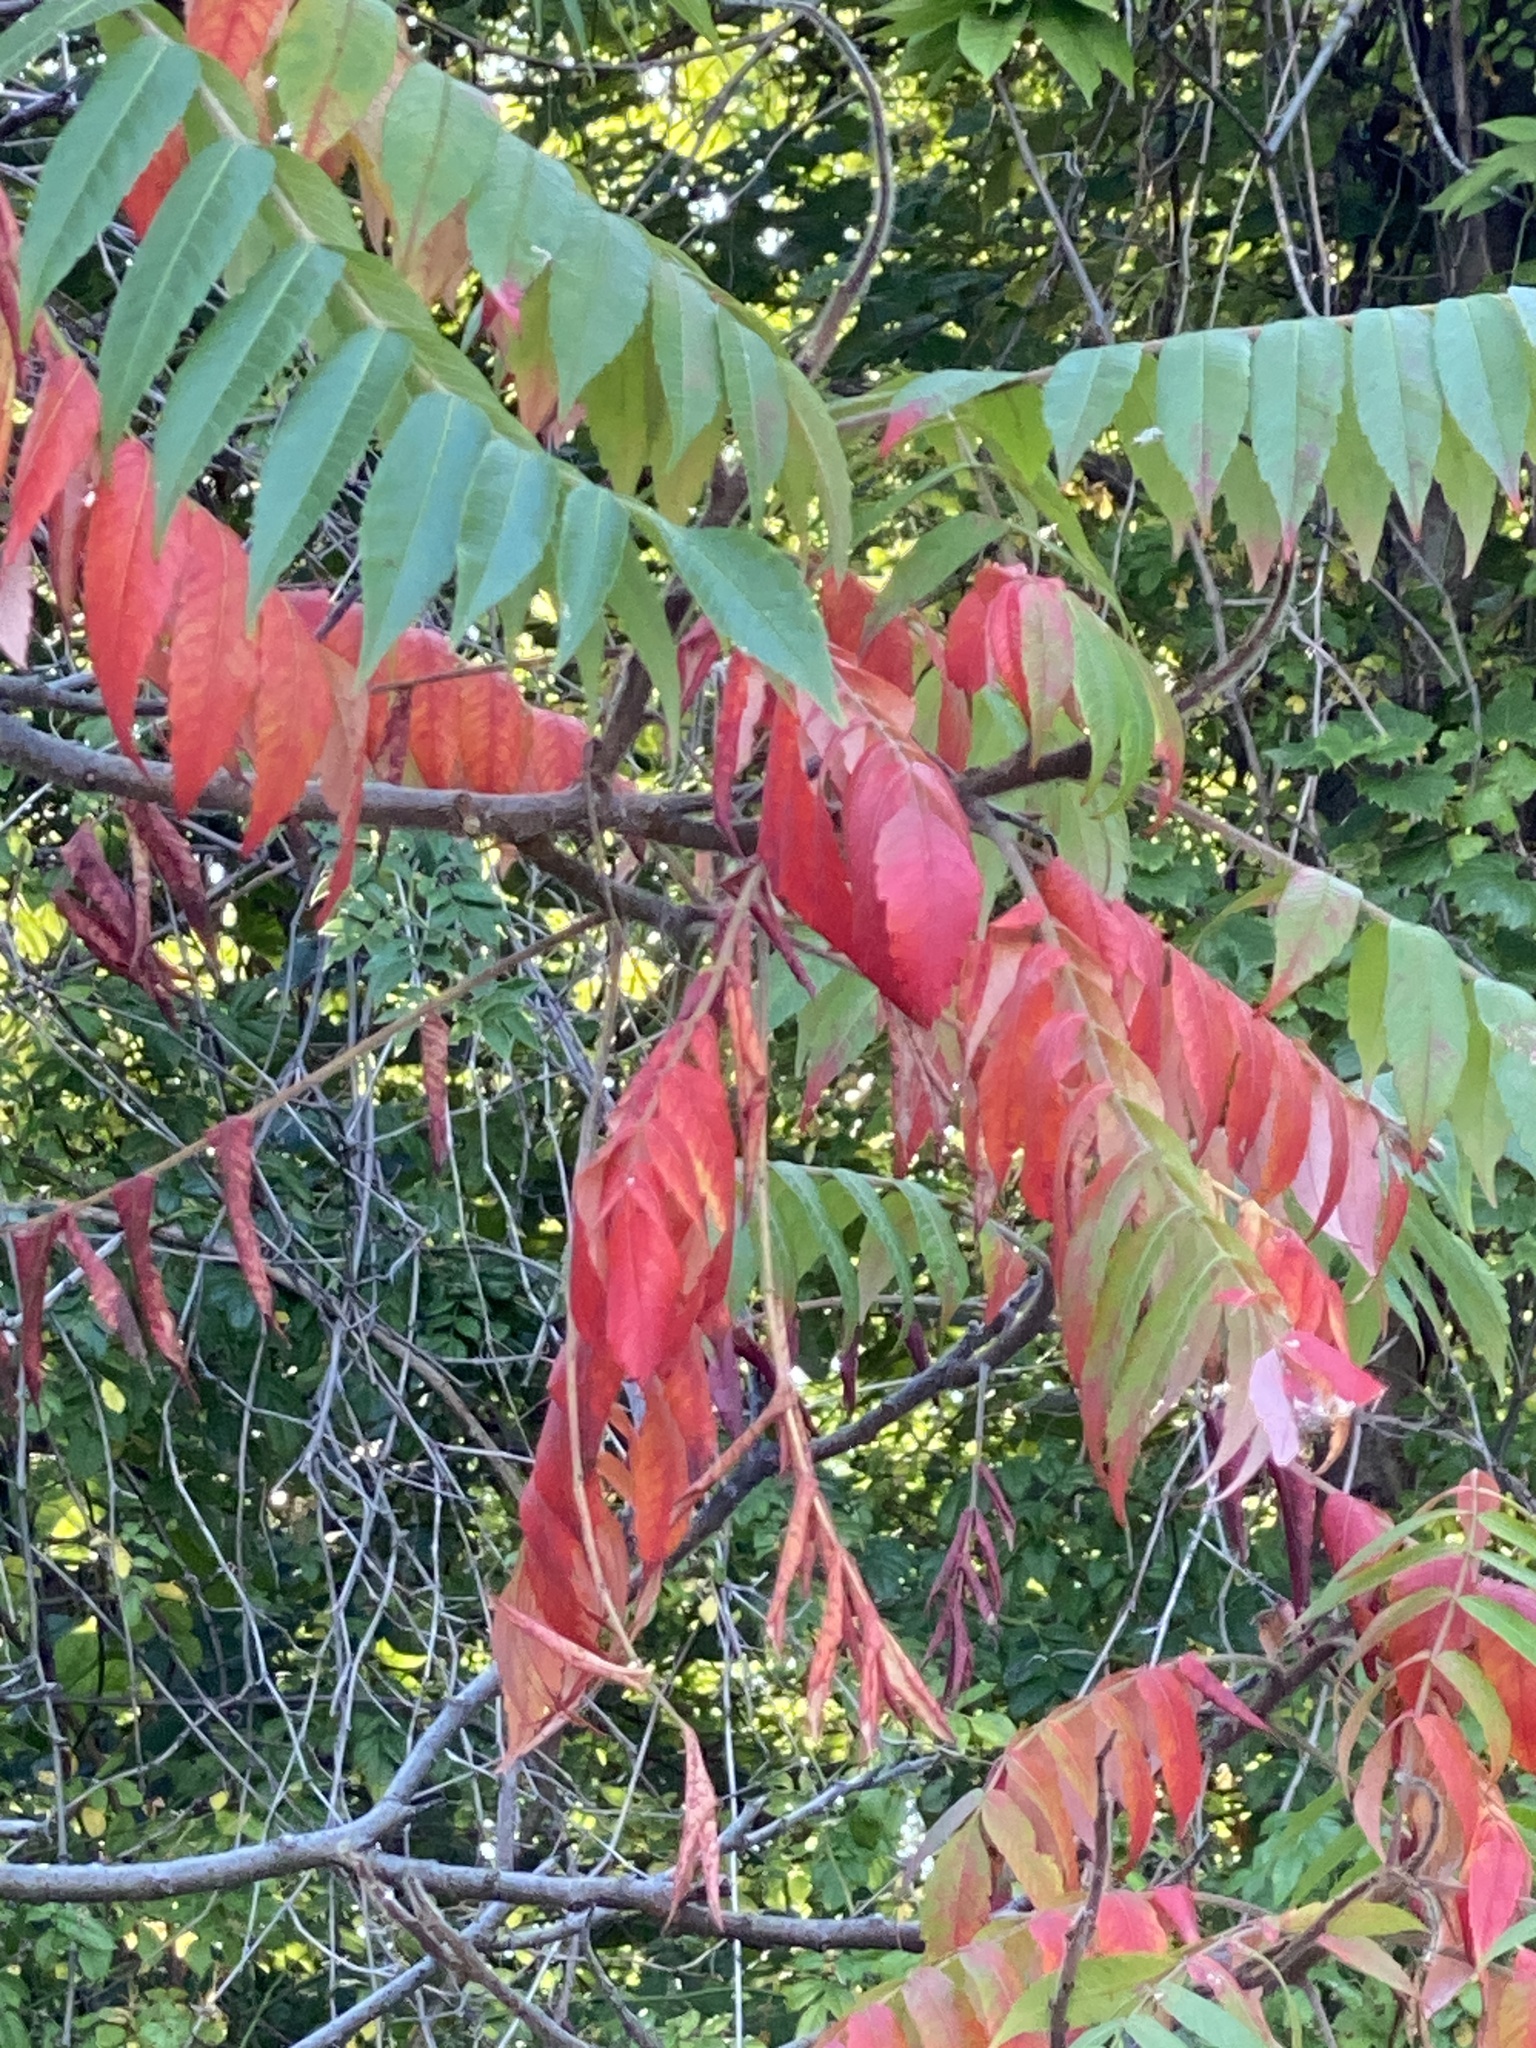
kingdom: Plantae
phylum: Tracheophyta
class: Magnoliopsida
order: Sapindales
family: Anacardiaceae
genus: Rhus
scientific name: Rhus typhina
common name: Staghorn sumac
